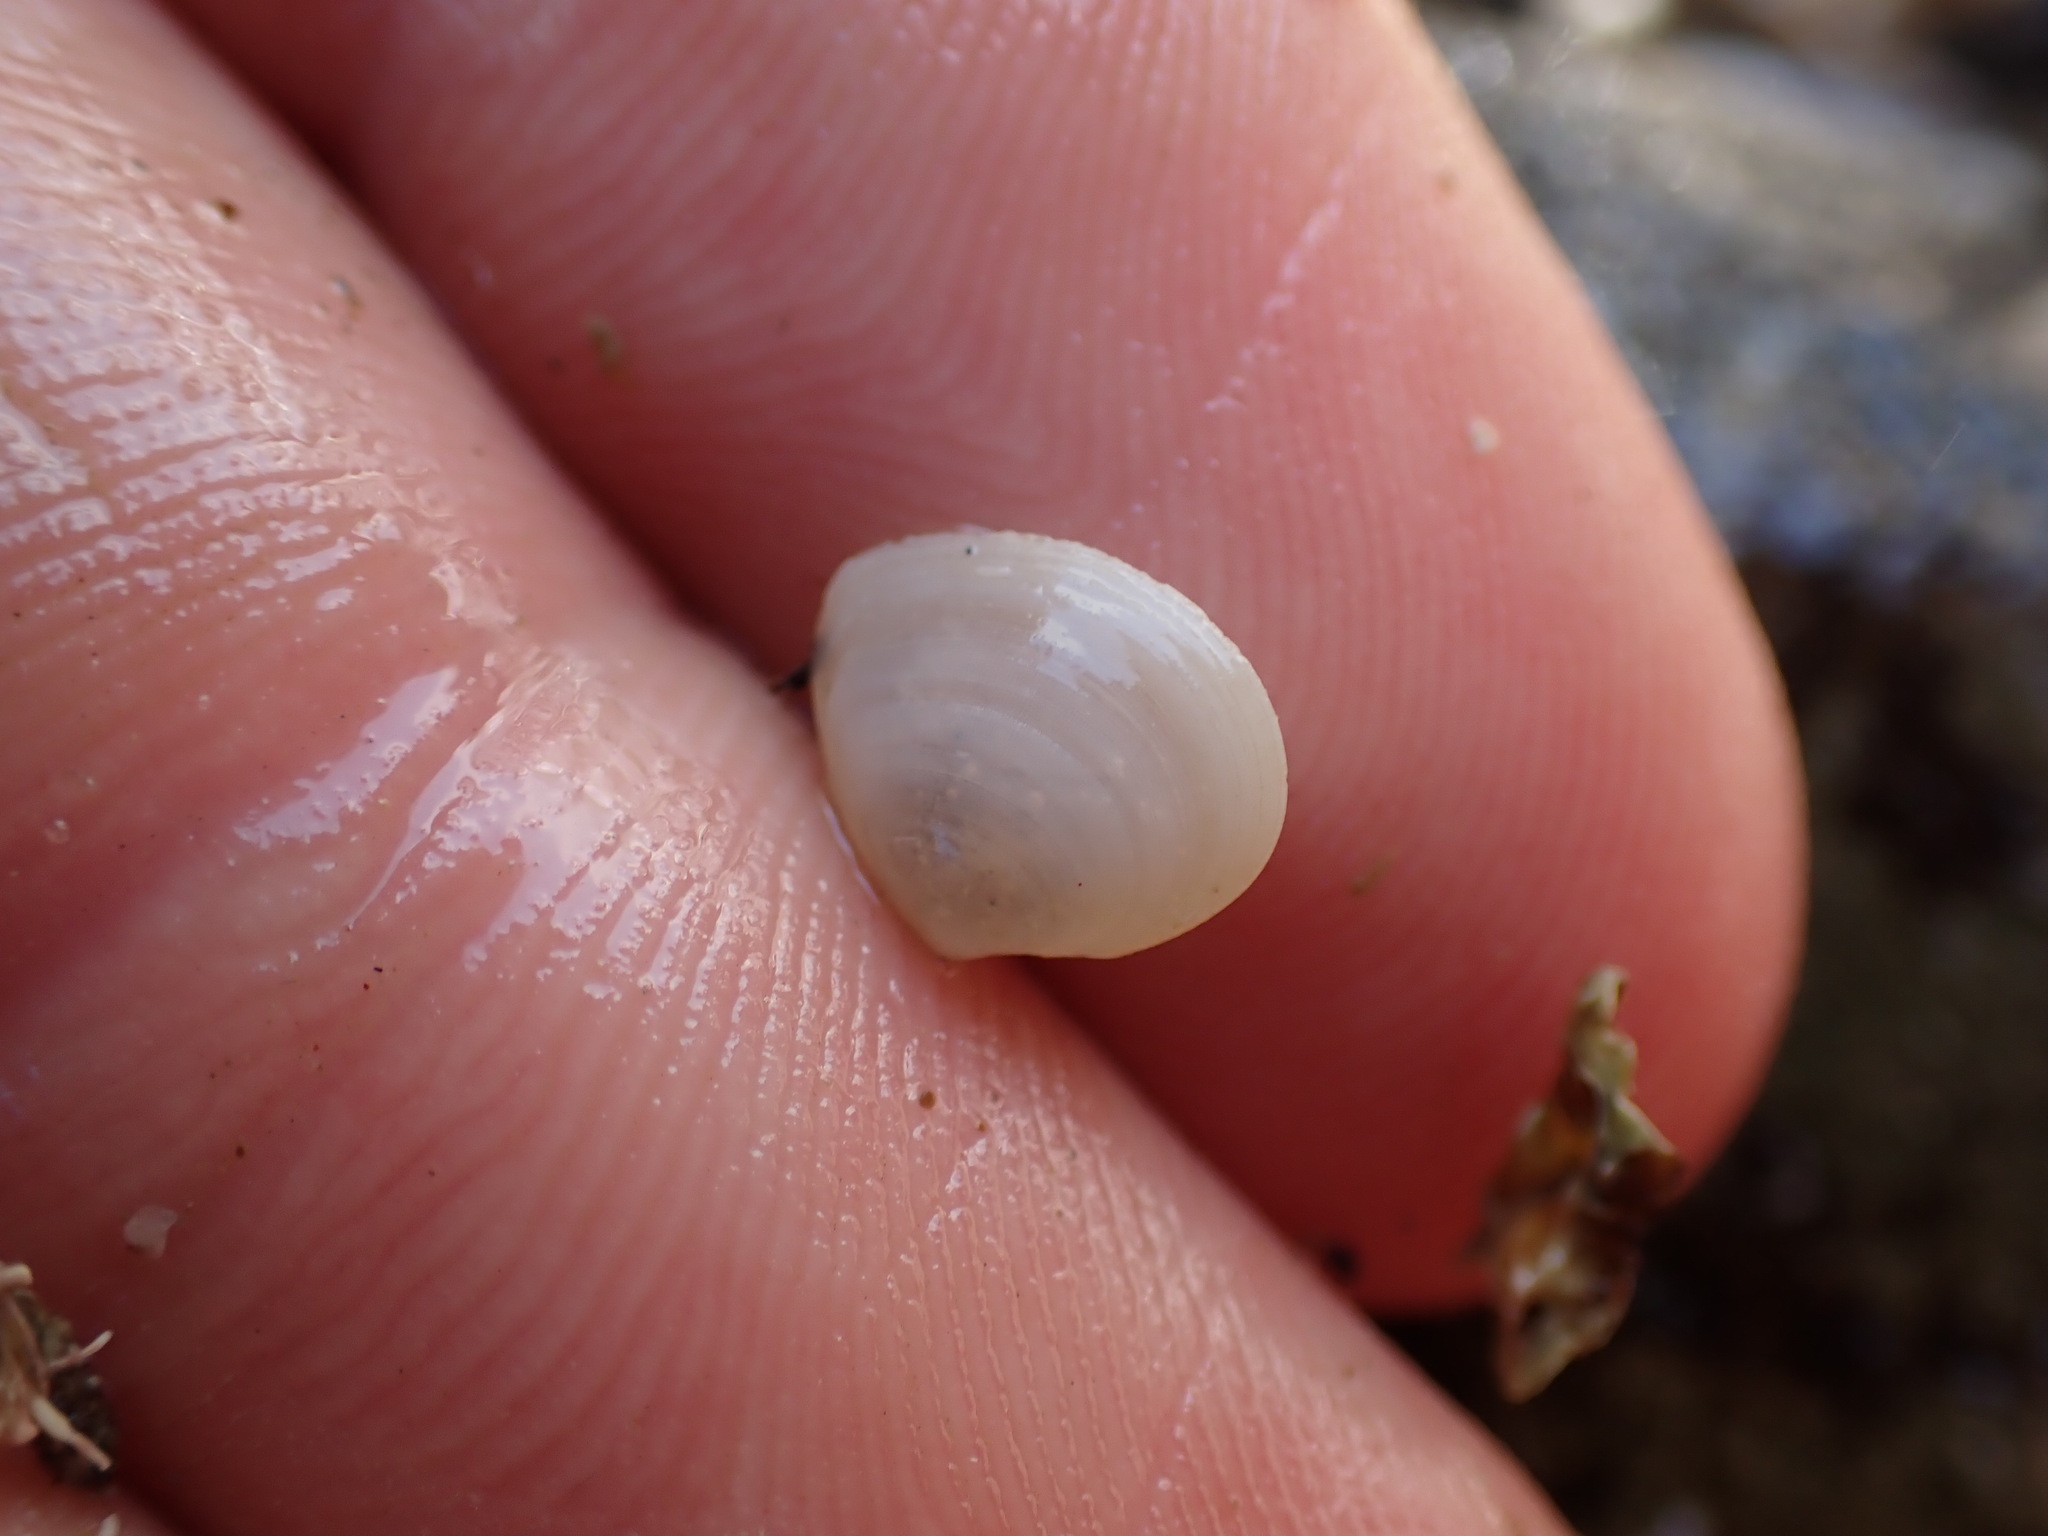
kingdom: Animalia
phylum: Mollusca
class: Bivalvia
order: Cardiida
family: Semelidae
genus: Leptomya
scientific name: Leptomya retiaria
